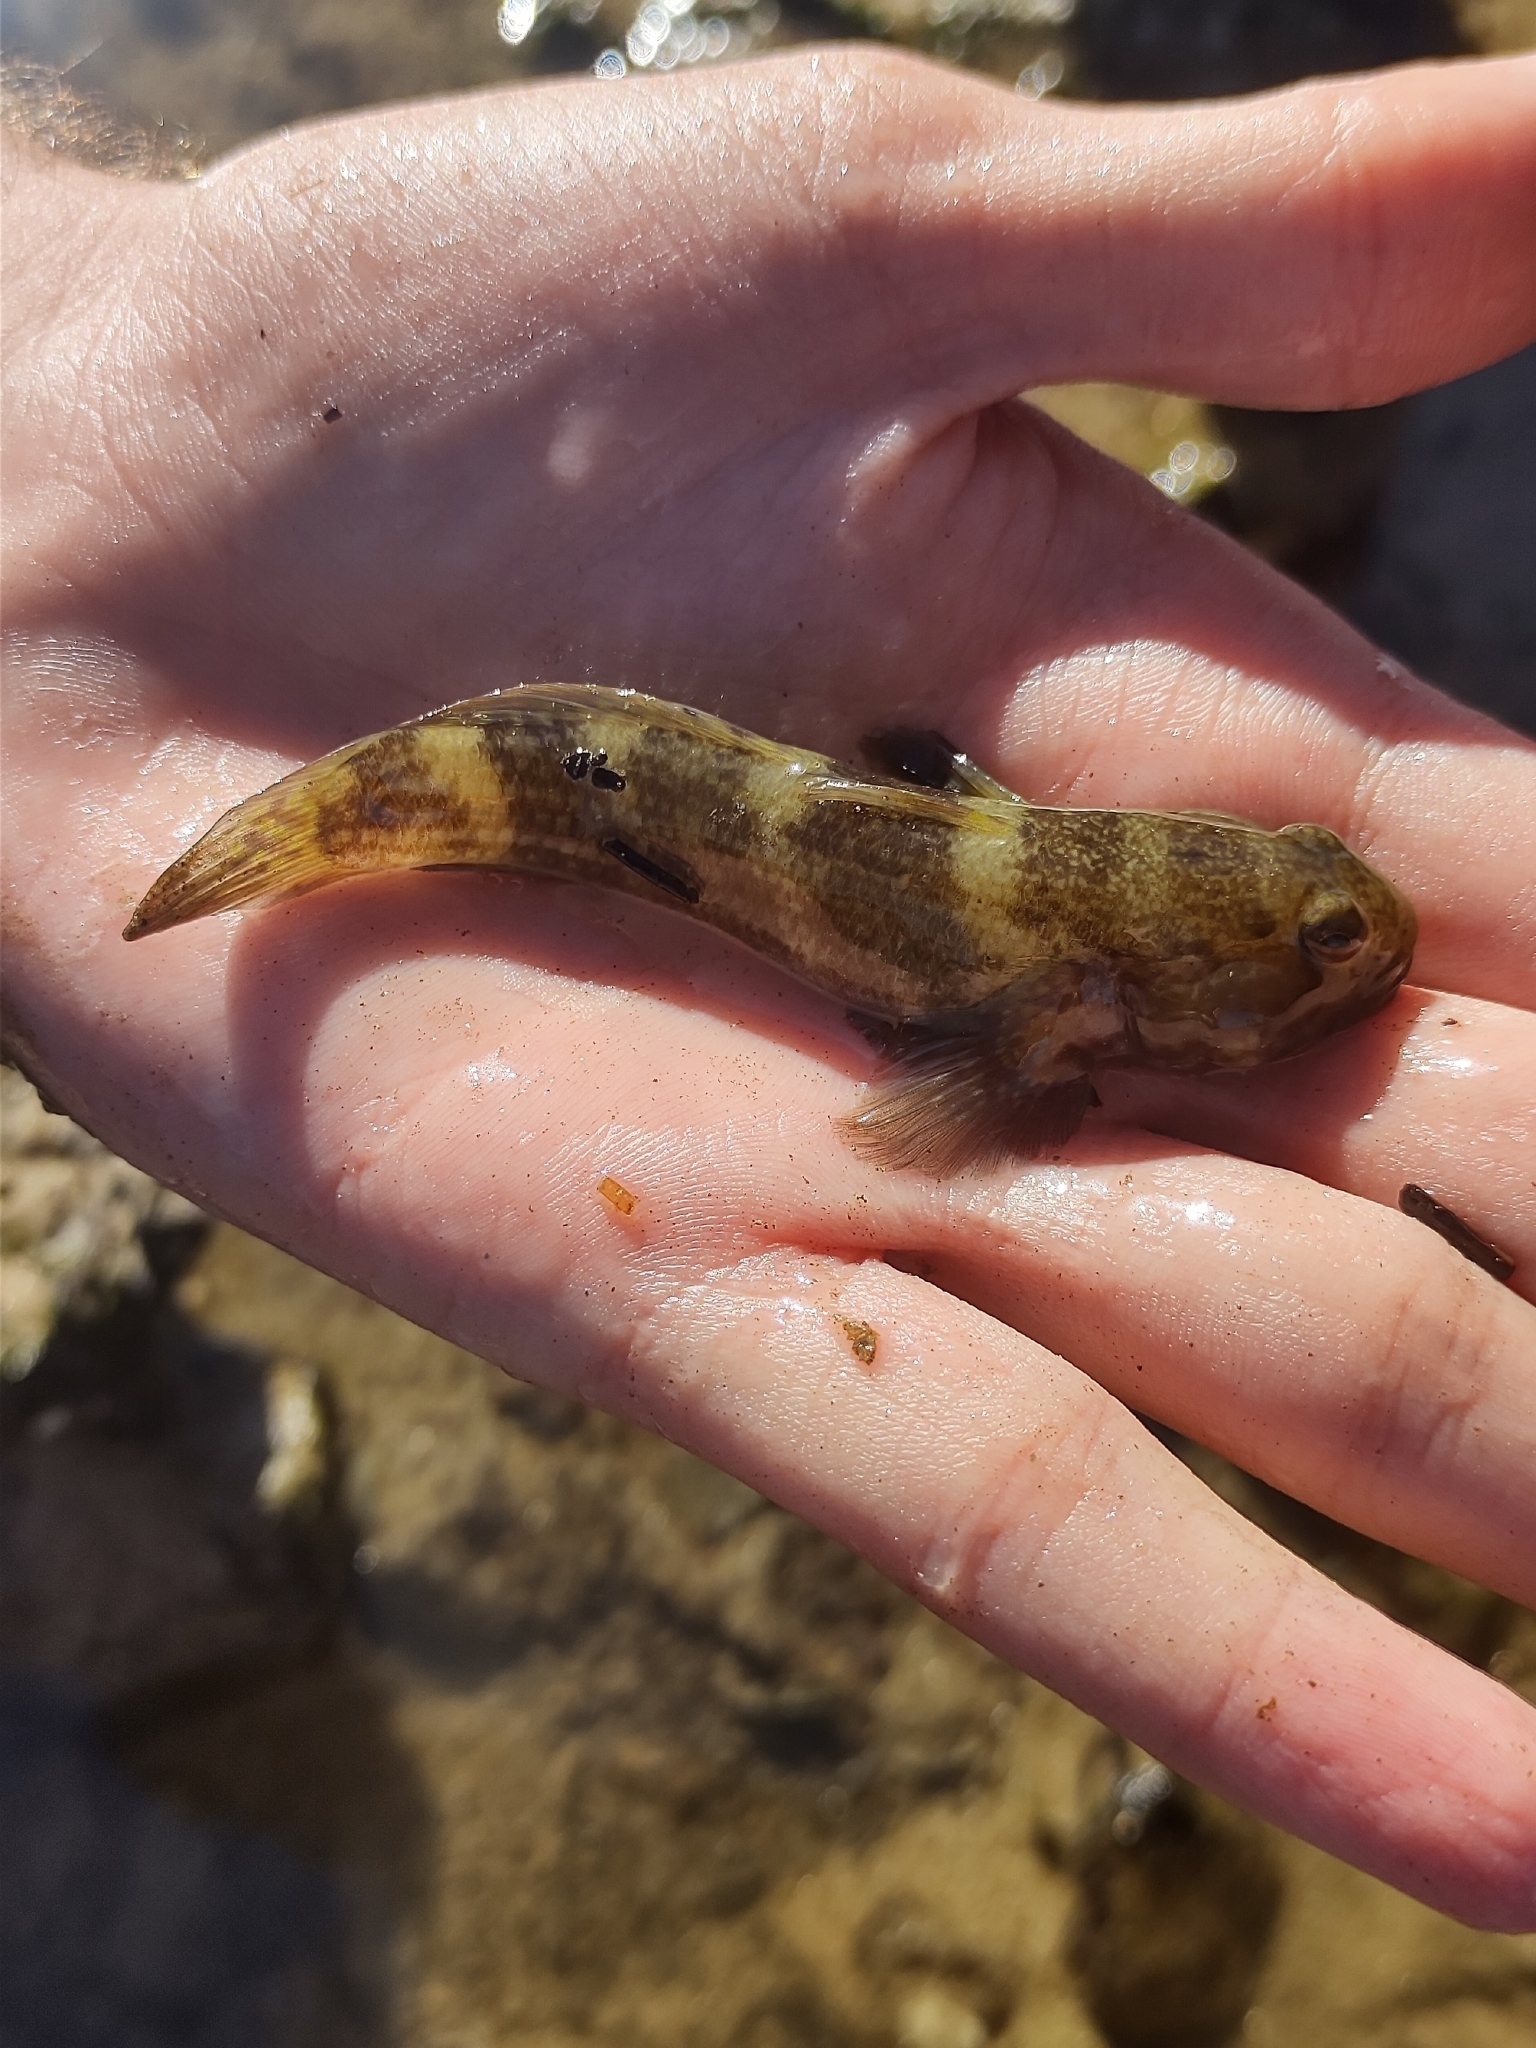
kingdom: Animalia
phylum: Chordata
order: Perciformes
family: Gobiidae
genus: Bathygobius
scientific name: Bathygobius soporator
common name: Frillfin goby
